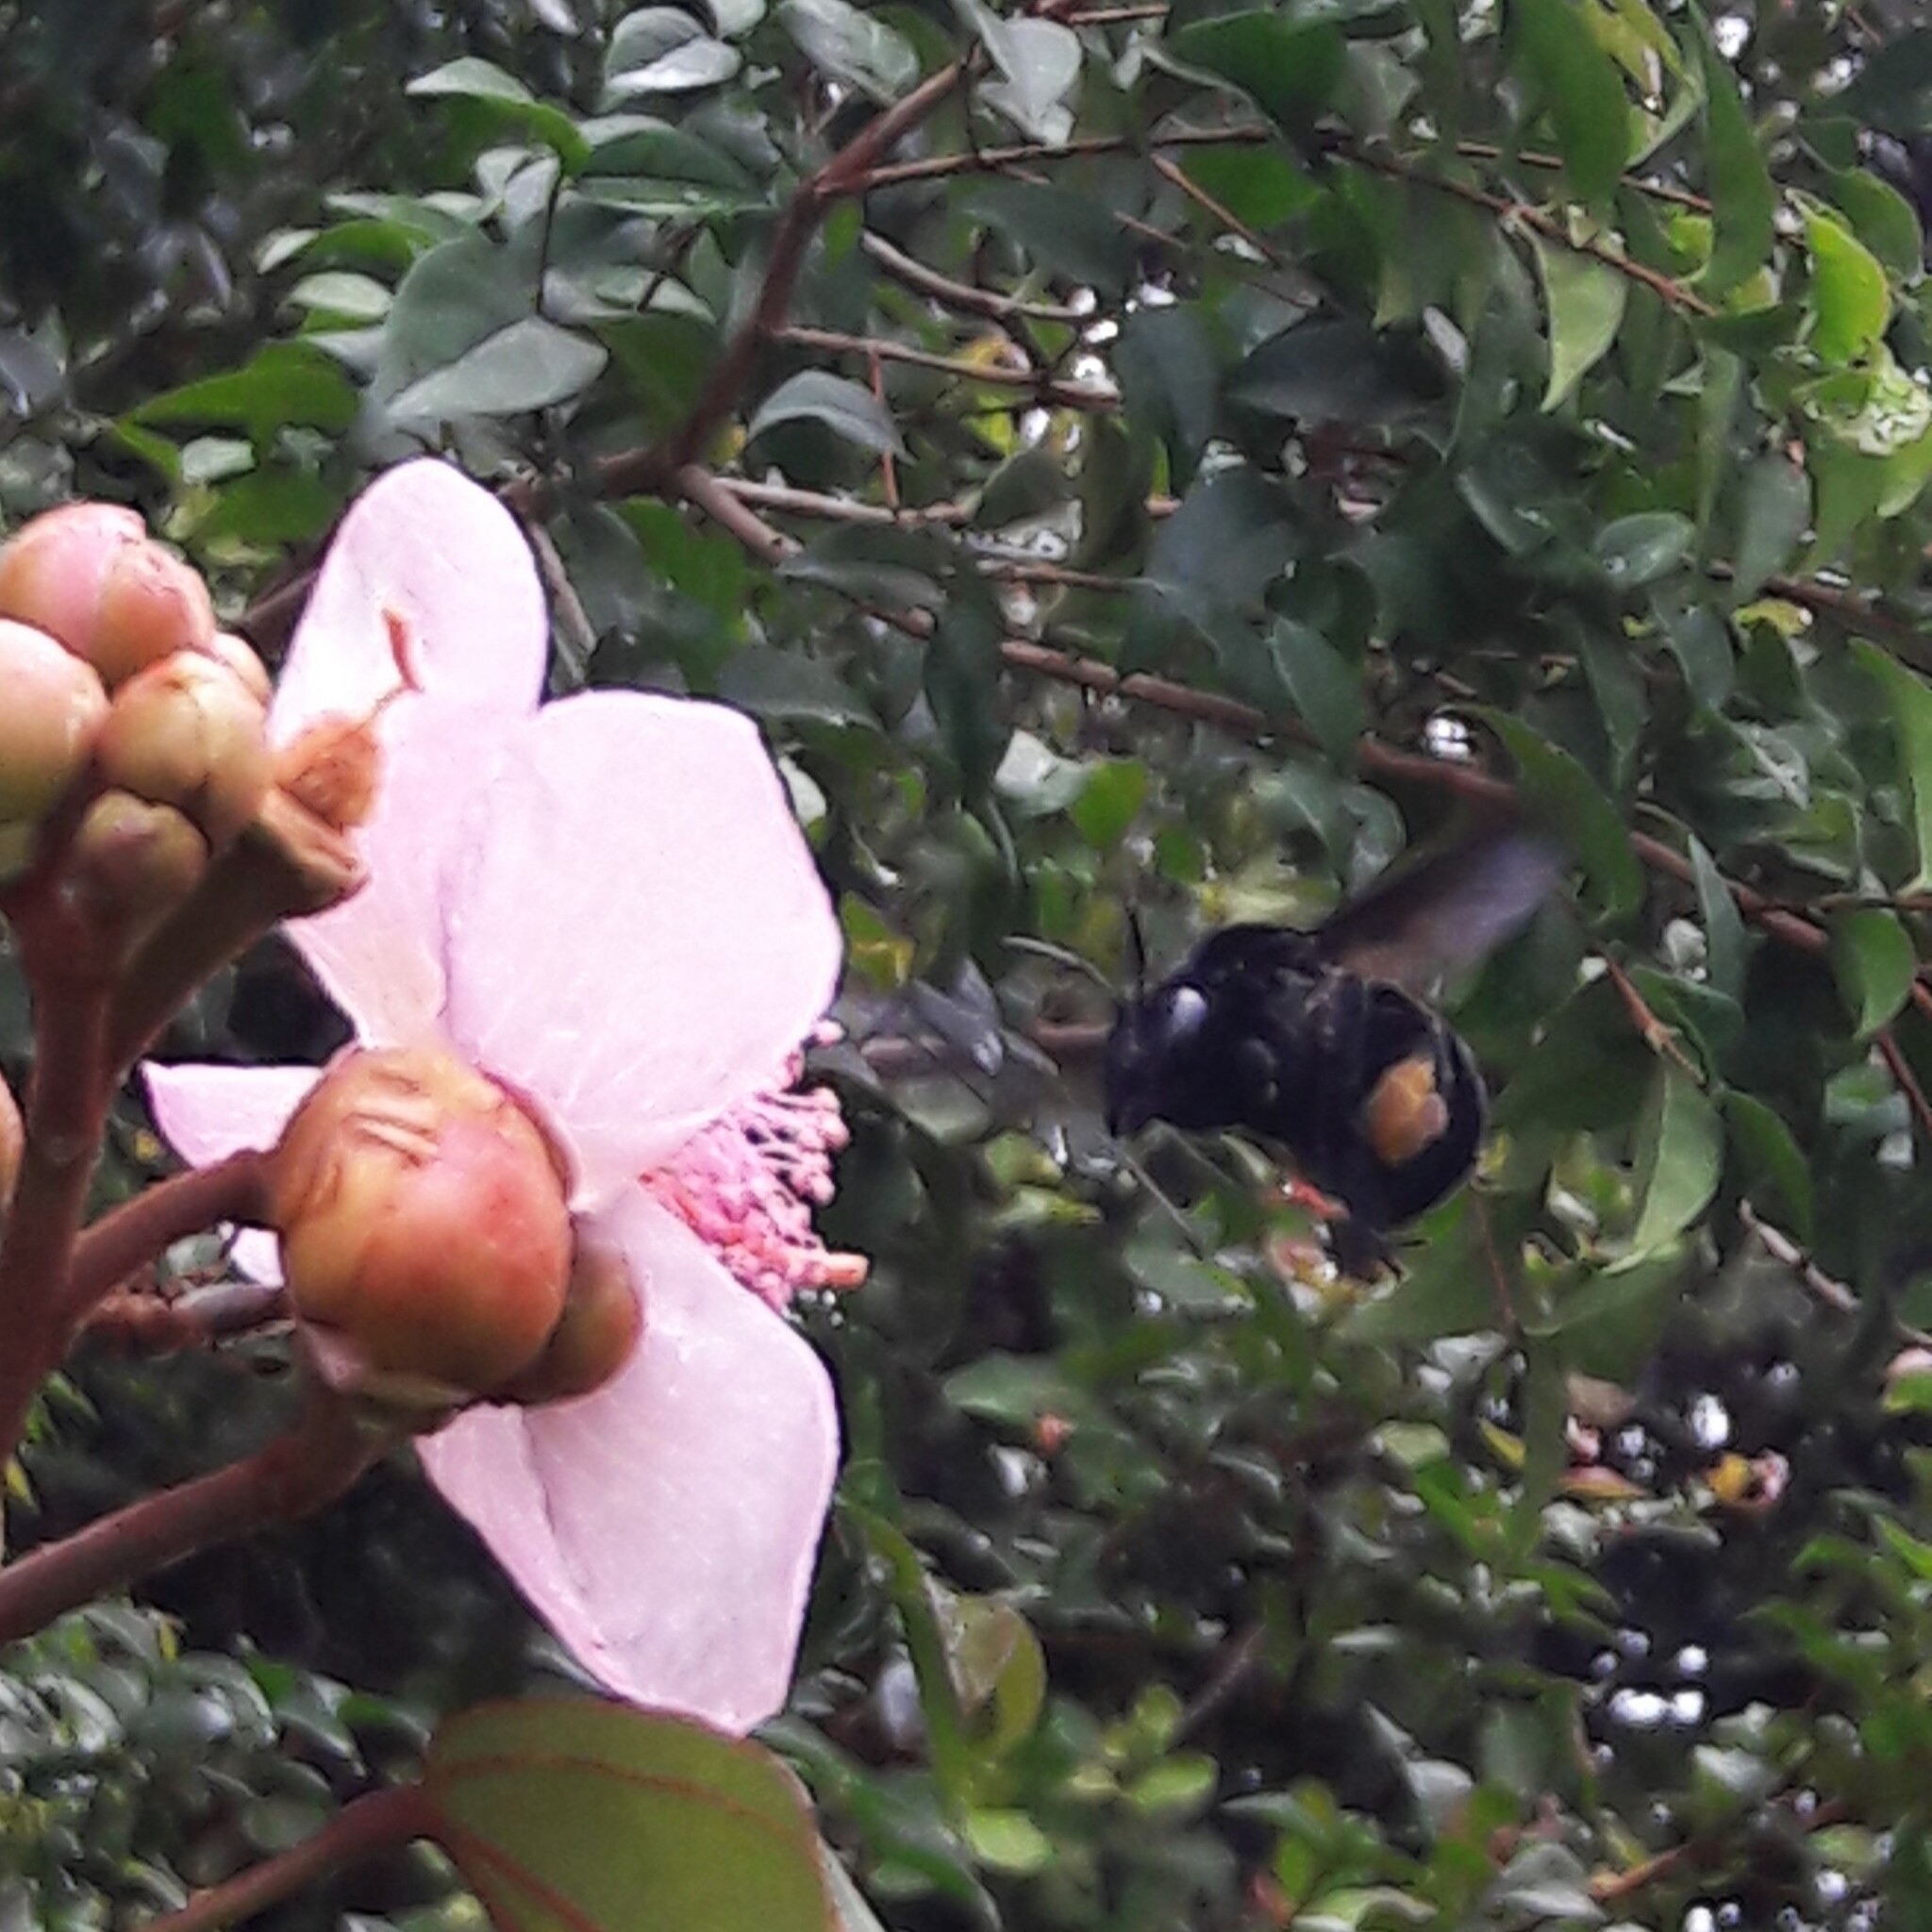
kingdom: Animalia
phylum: Arthropoda
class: Insecta
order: Hymenoptera
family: Apidae
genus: Eulaema
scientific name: Eulaema nigrita
